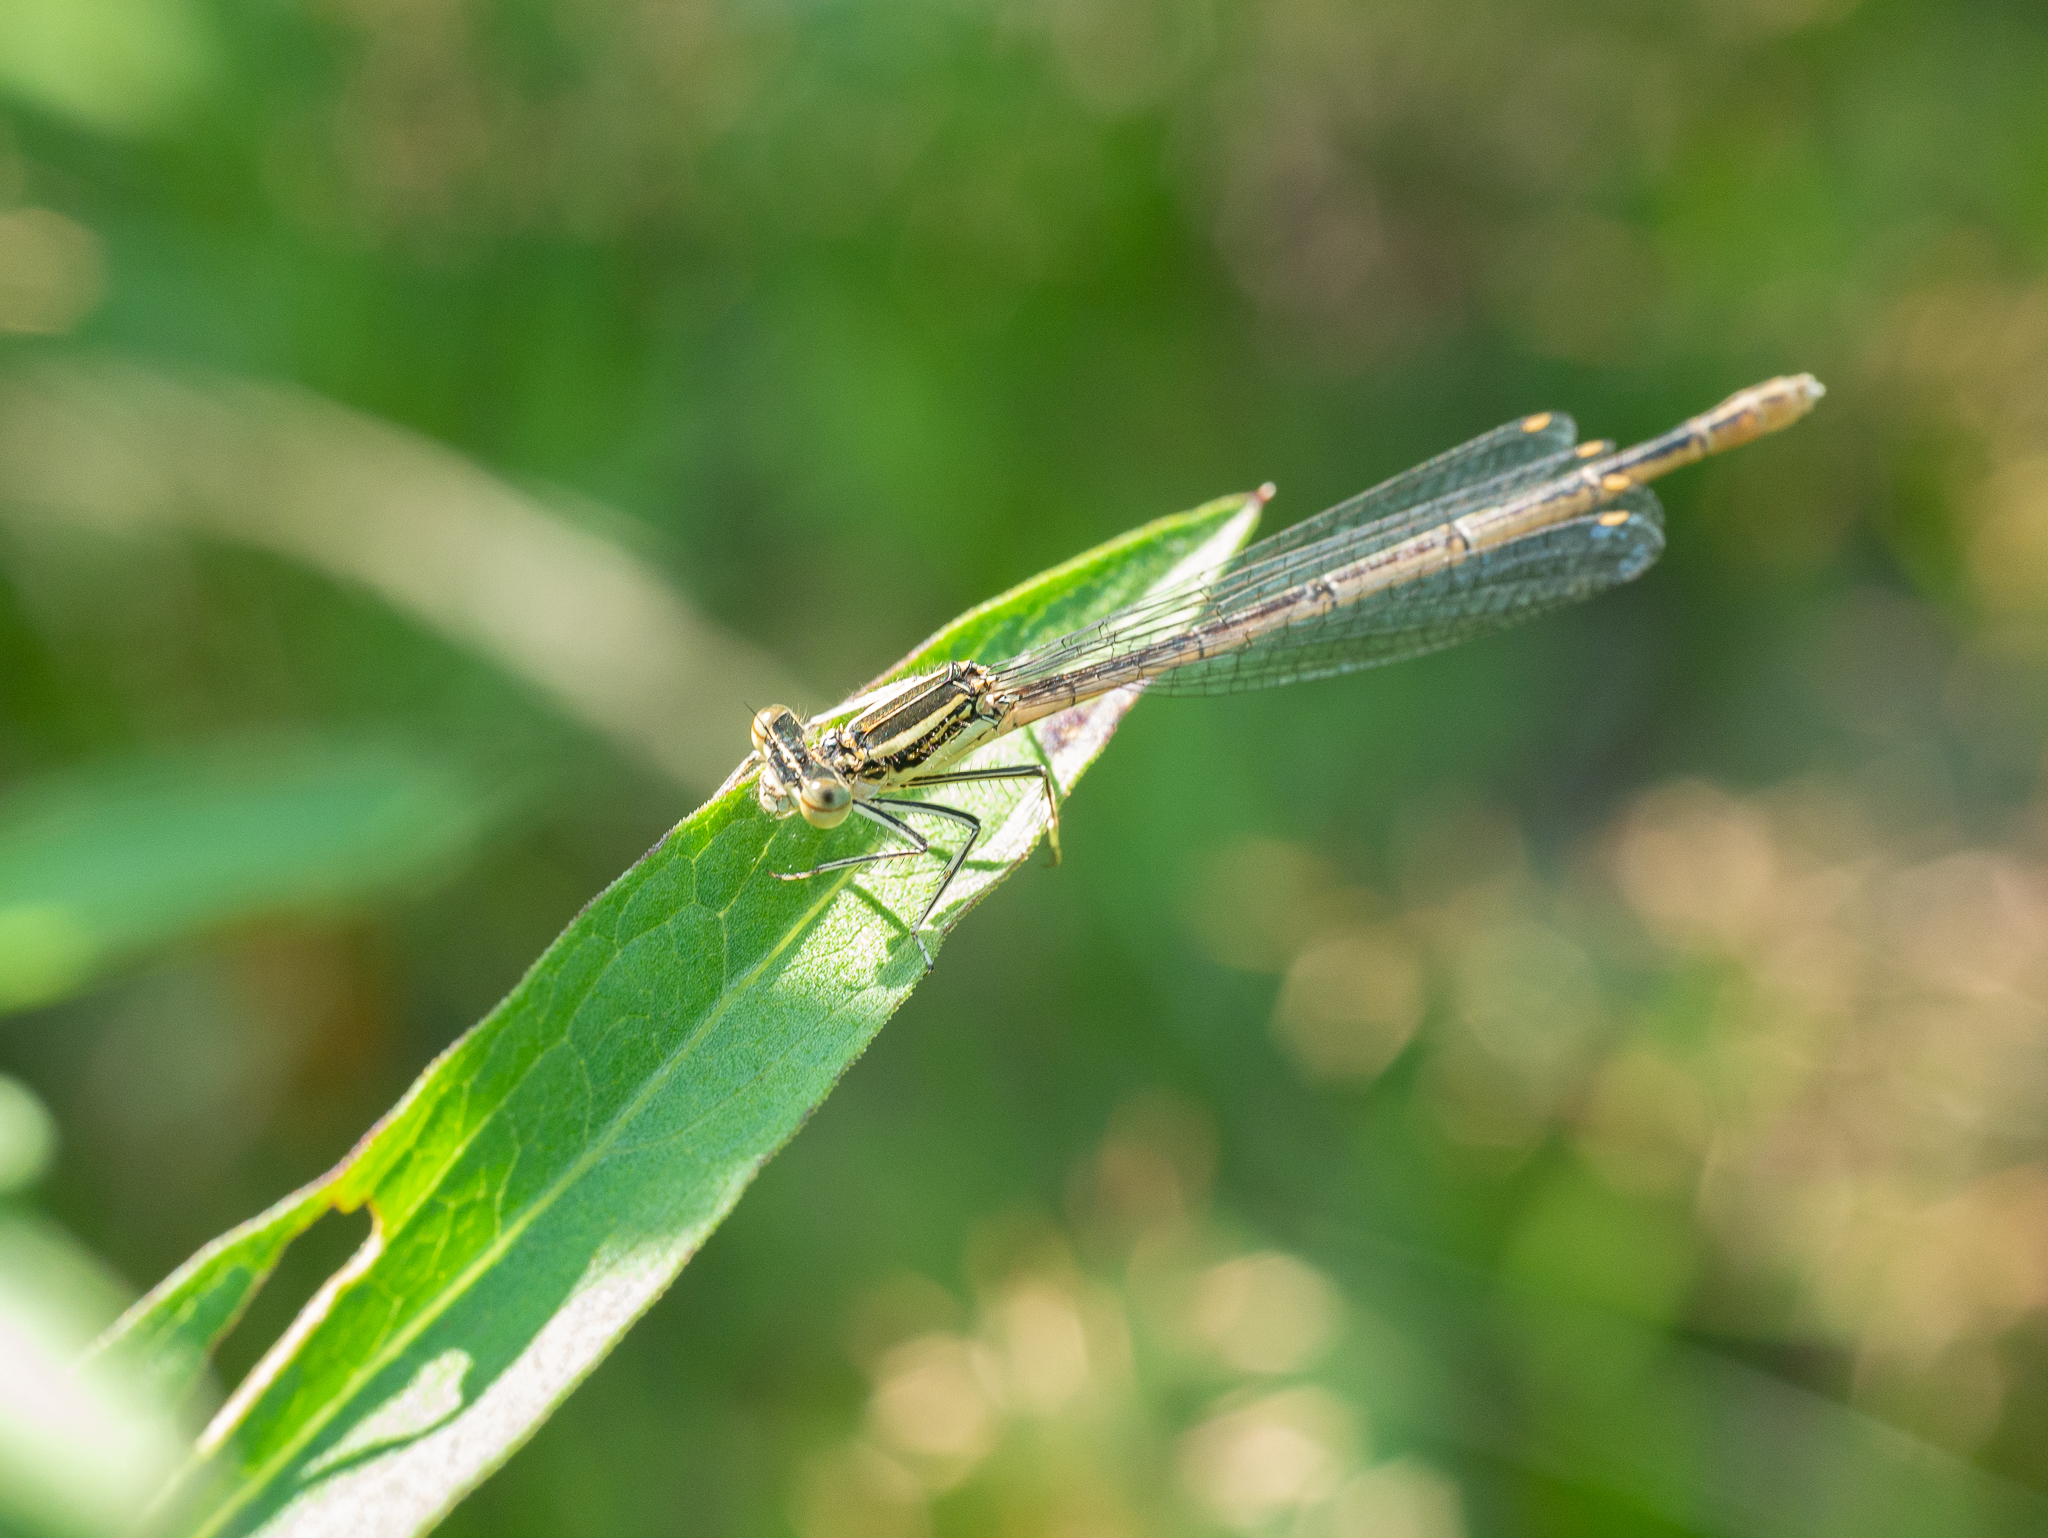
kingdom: Animalia
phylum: Arthropoda
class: Insecta
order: Odonata
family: Platycnemididae
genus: Platycnemis
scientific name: Platycnemis pennipes
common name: White-legged damselfly
